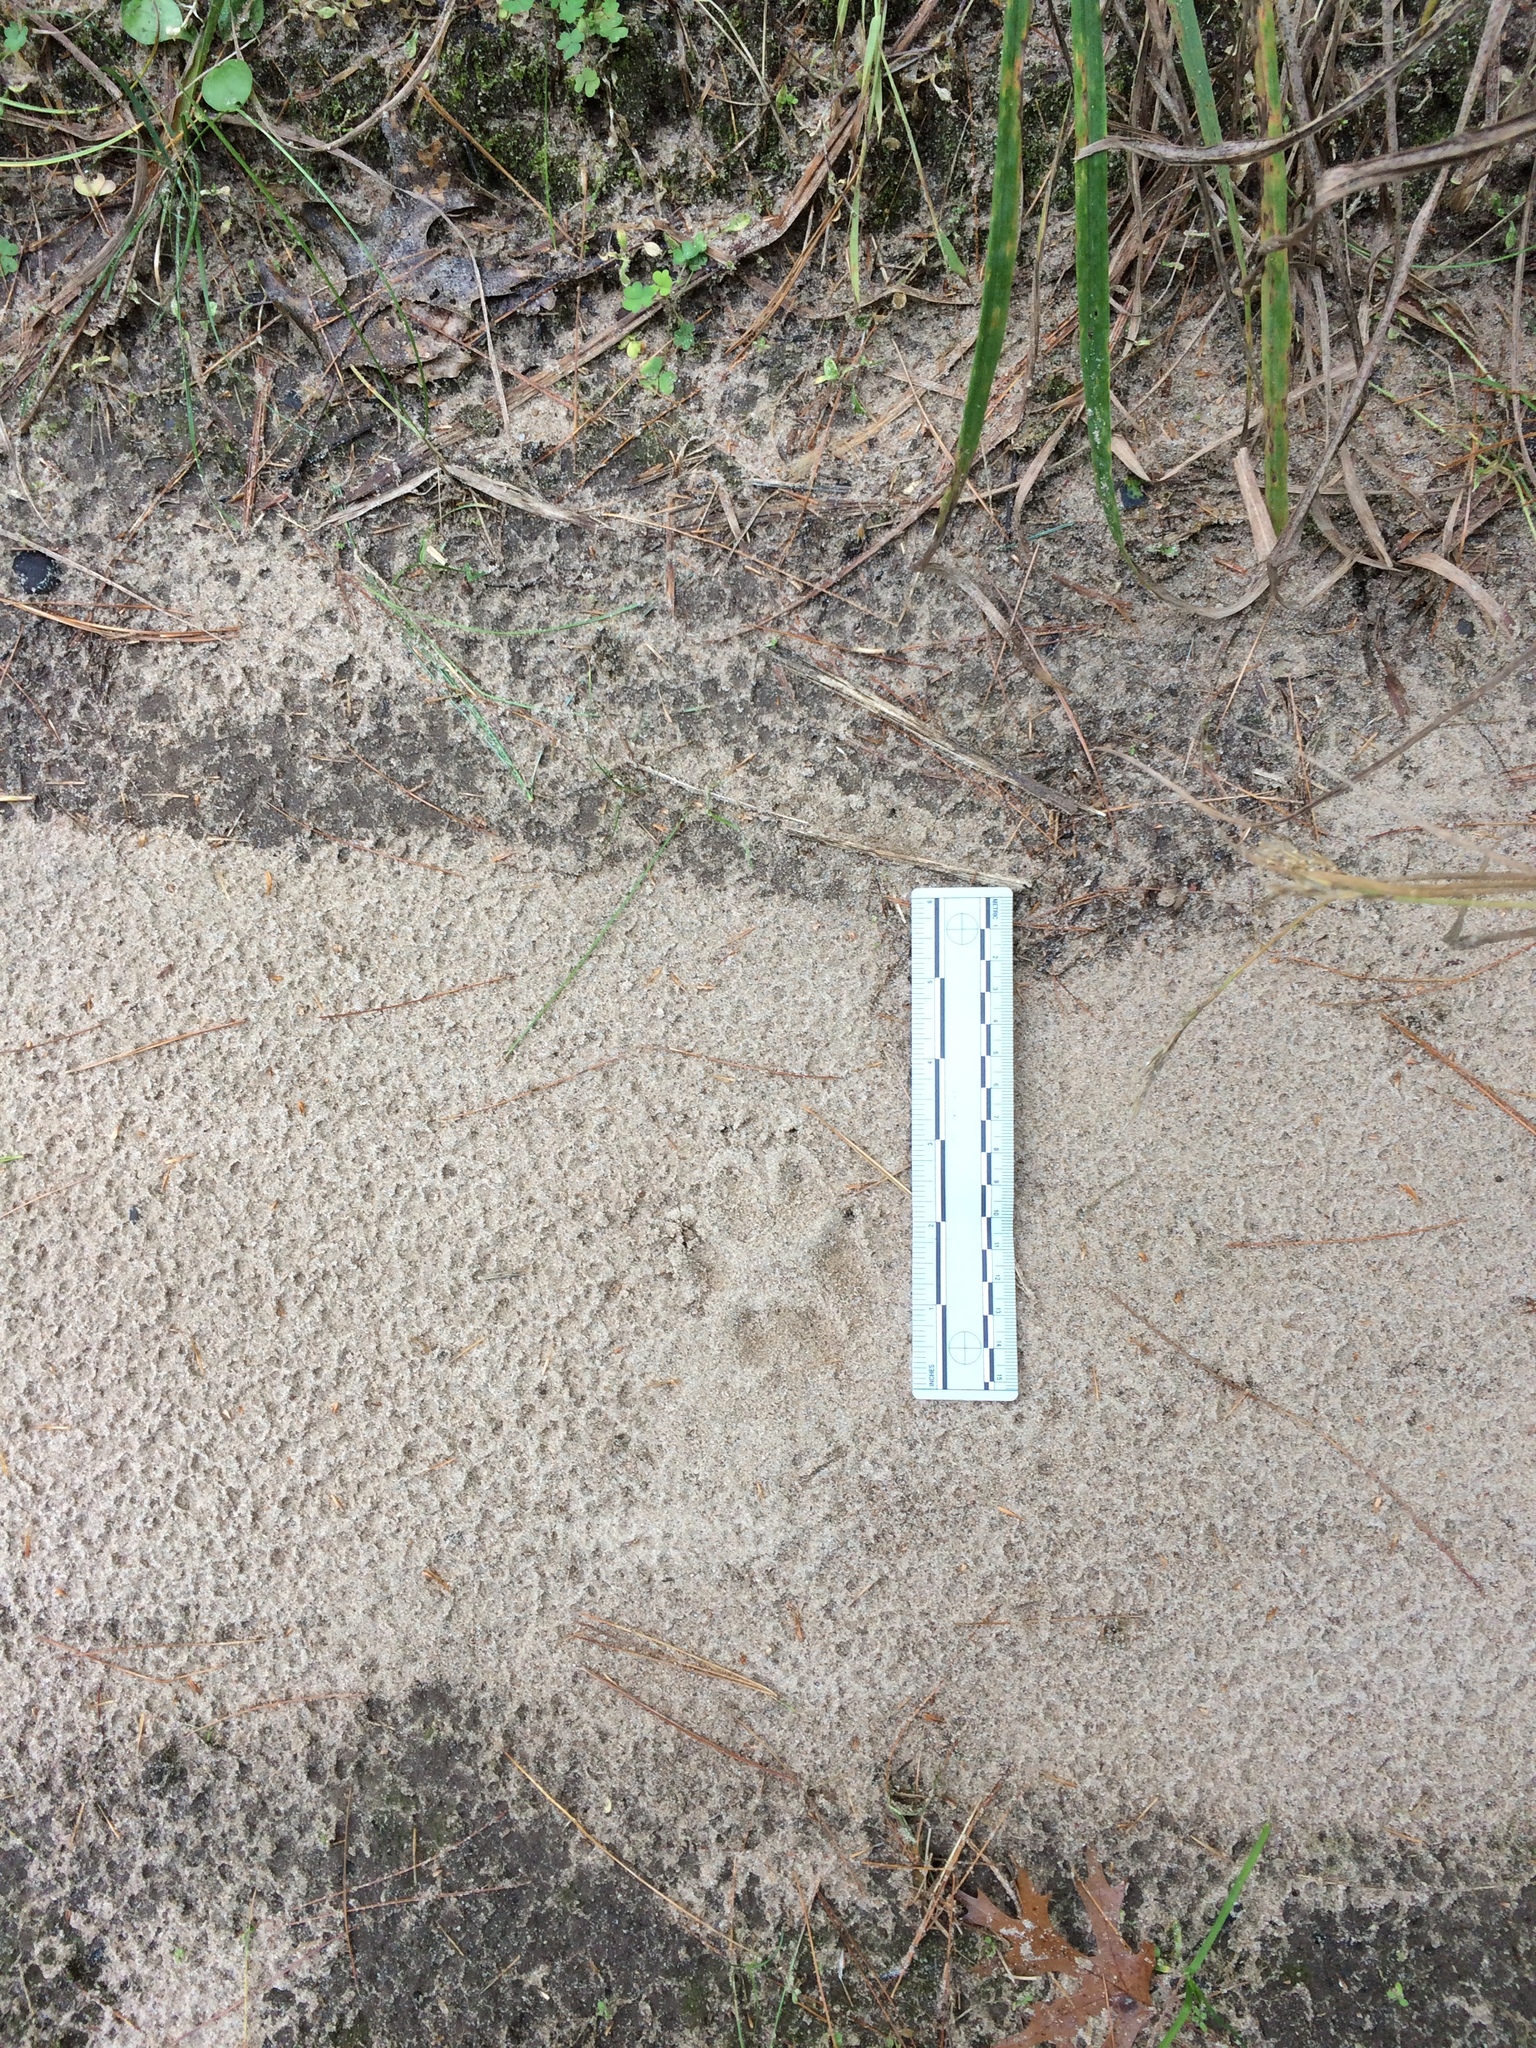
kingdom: Animalia
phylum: Chordata
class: Mammalia
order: Carnivora
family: Canidae
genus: Vulpes
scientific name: Vulpes vulpes
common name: Red fox
